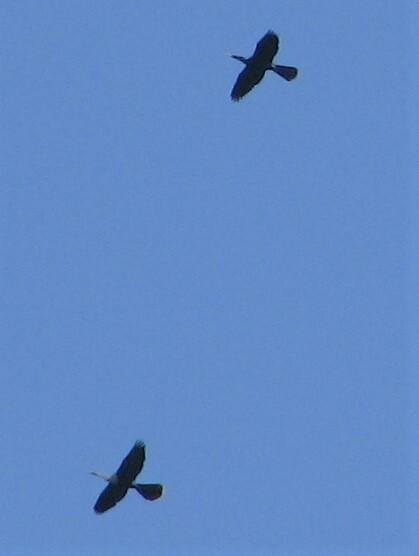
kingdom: Animalia
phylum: Chordata
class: Aves
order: Suliformes
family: Anhingidae
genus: Anhinga
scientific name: Anhinga anhinga
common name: Anhinga
